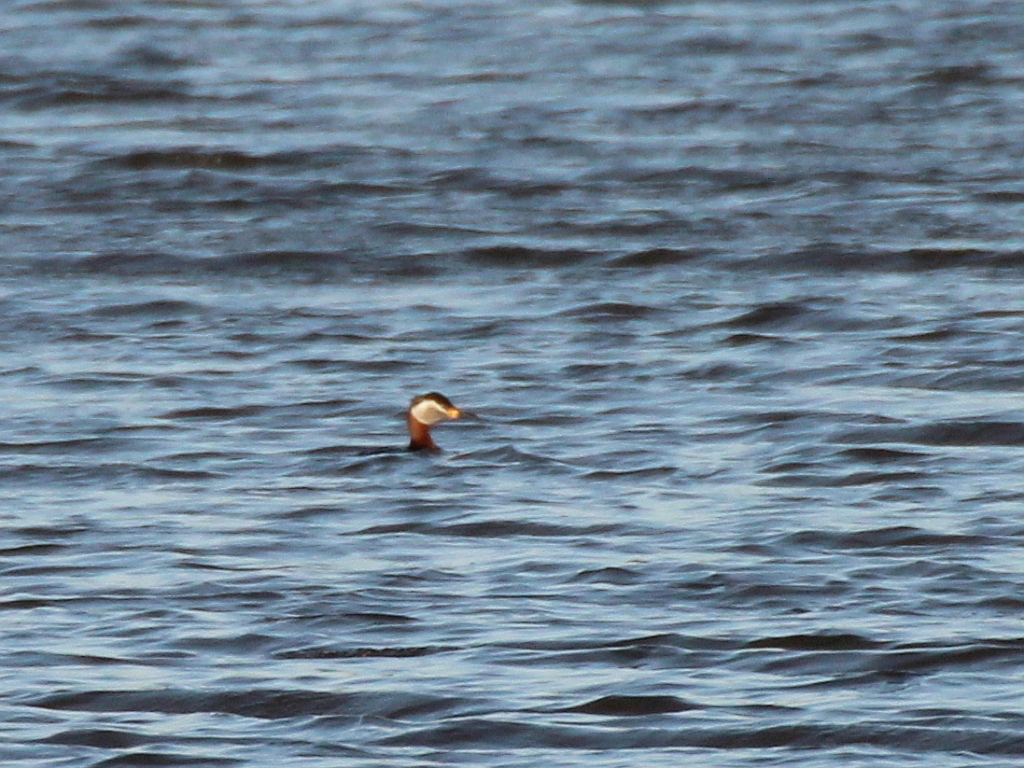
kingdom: Animalia
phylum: Chordata
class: Aves
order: Podicipediformes
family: Podicipedidae
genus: Podiceps
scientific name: Podiceps grisegena
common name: Red-necked grebe
